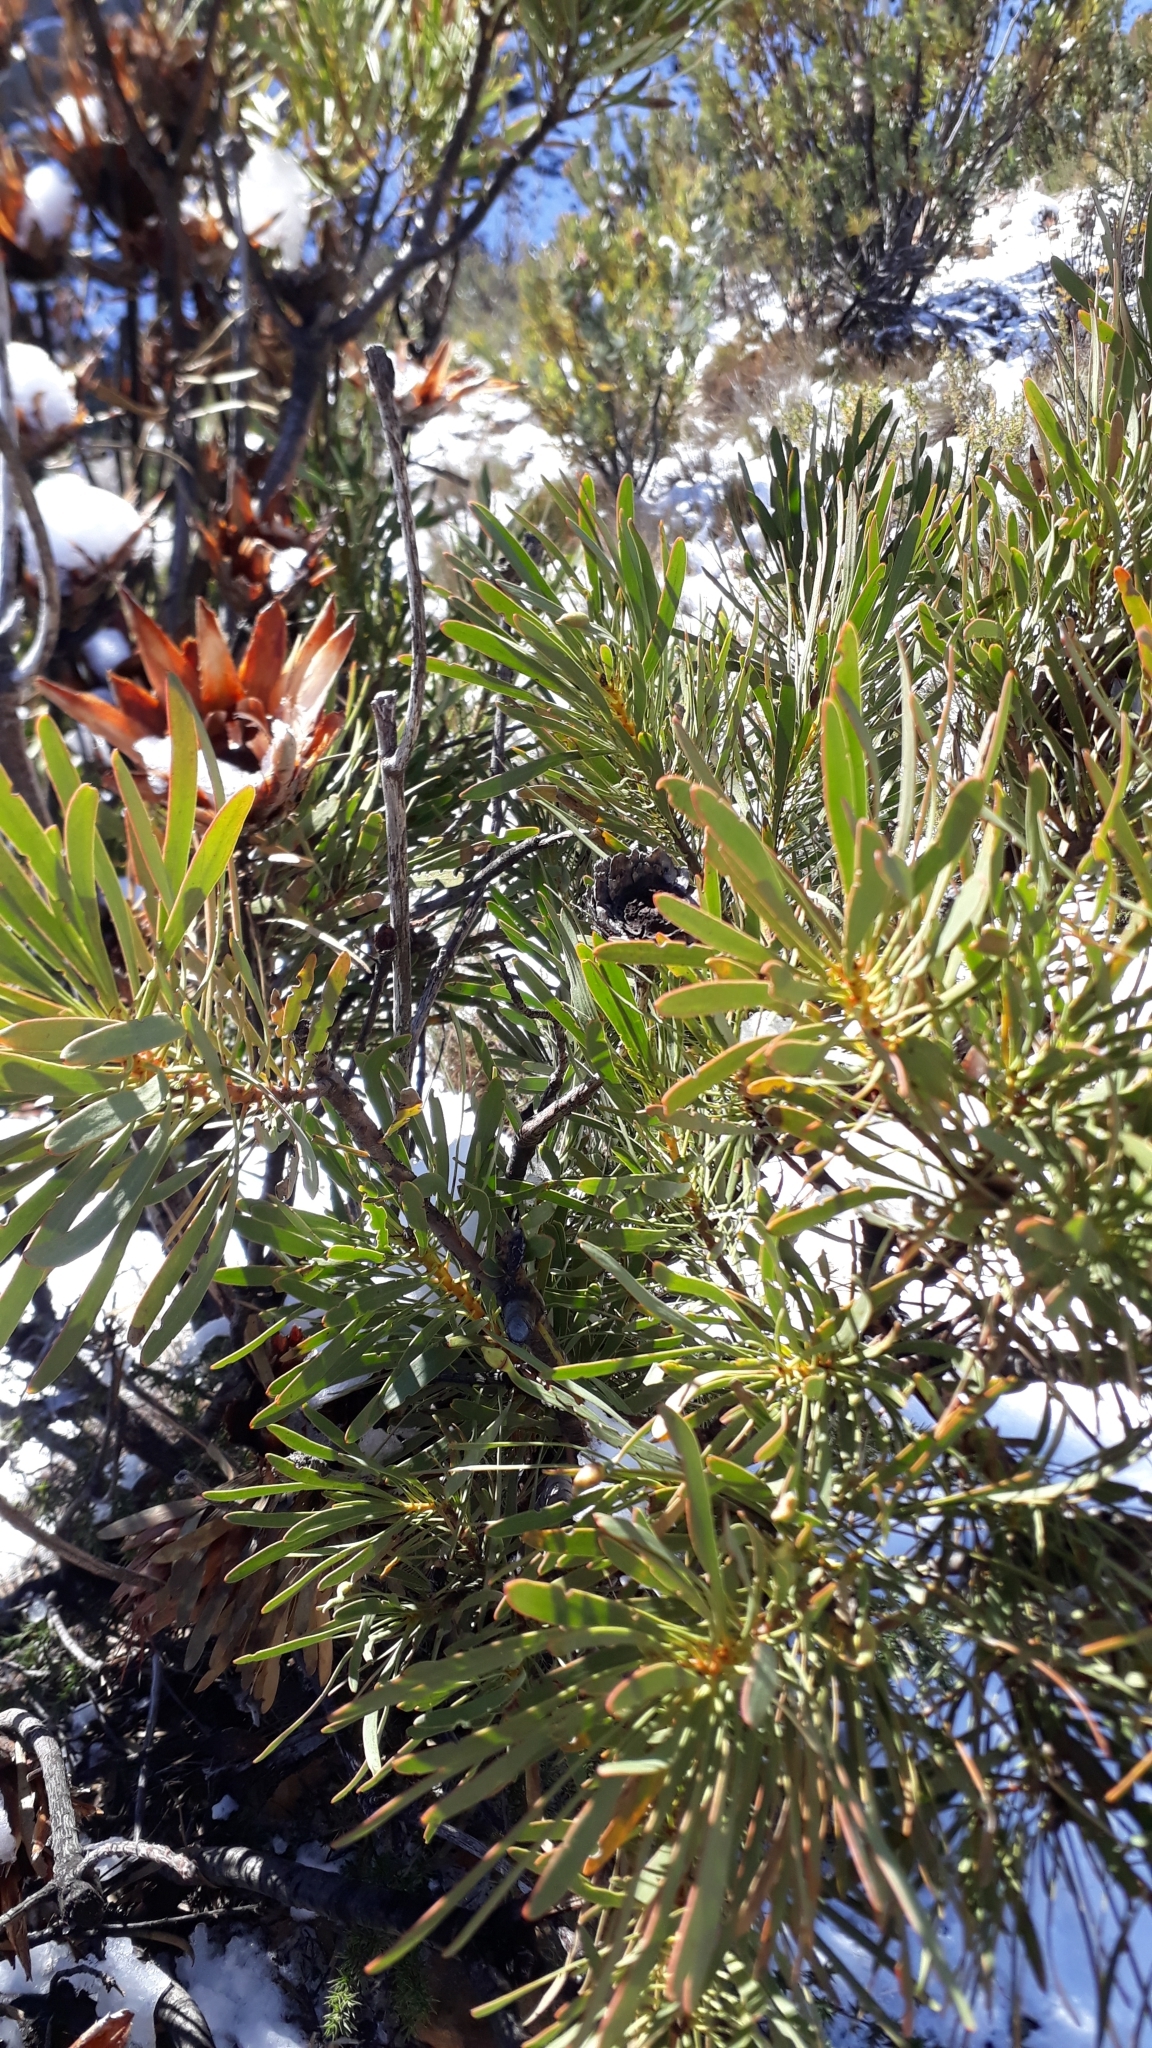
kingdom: Plantae
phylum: Tracheophyta
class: Magnoliopsida
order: Proteales
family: Proteaceae
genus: Protea
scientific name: Protea repens
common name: Sugarbush
